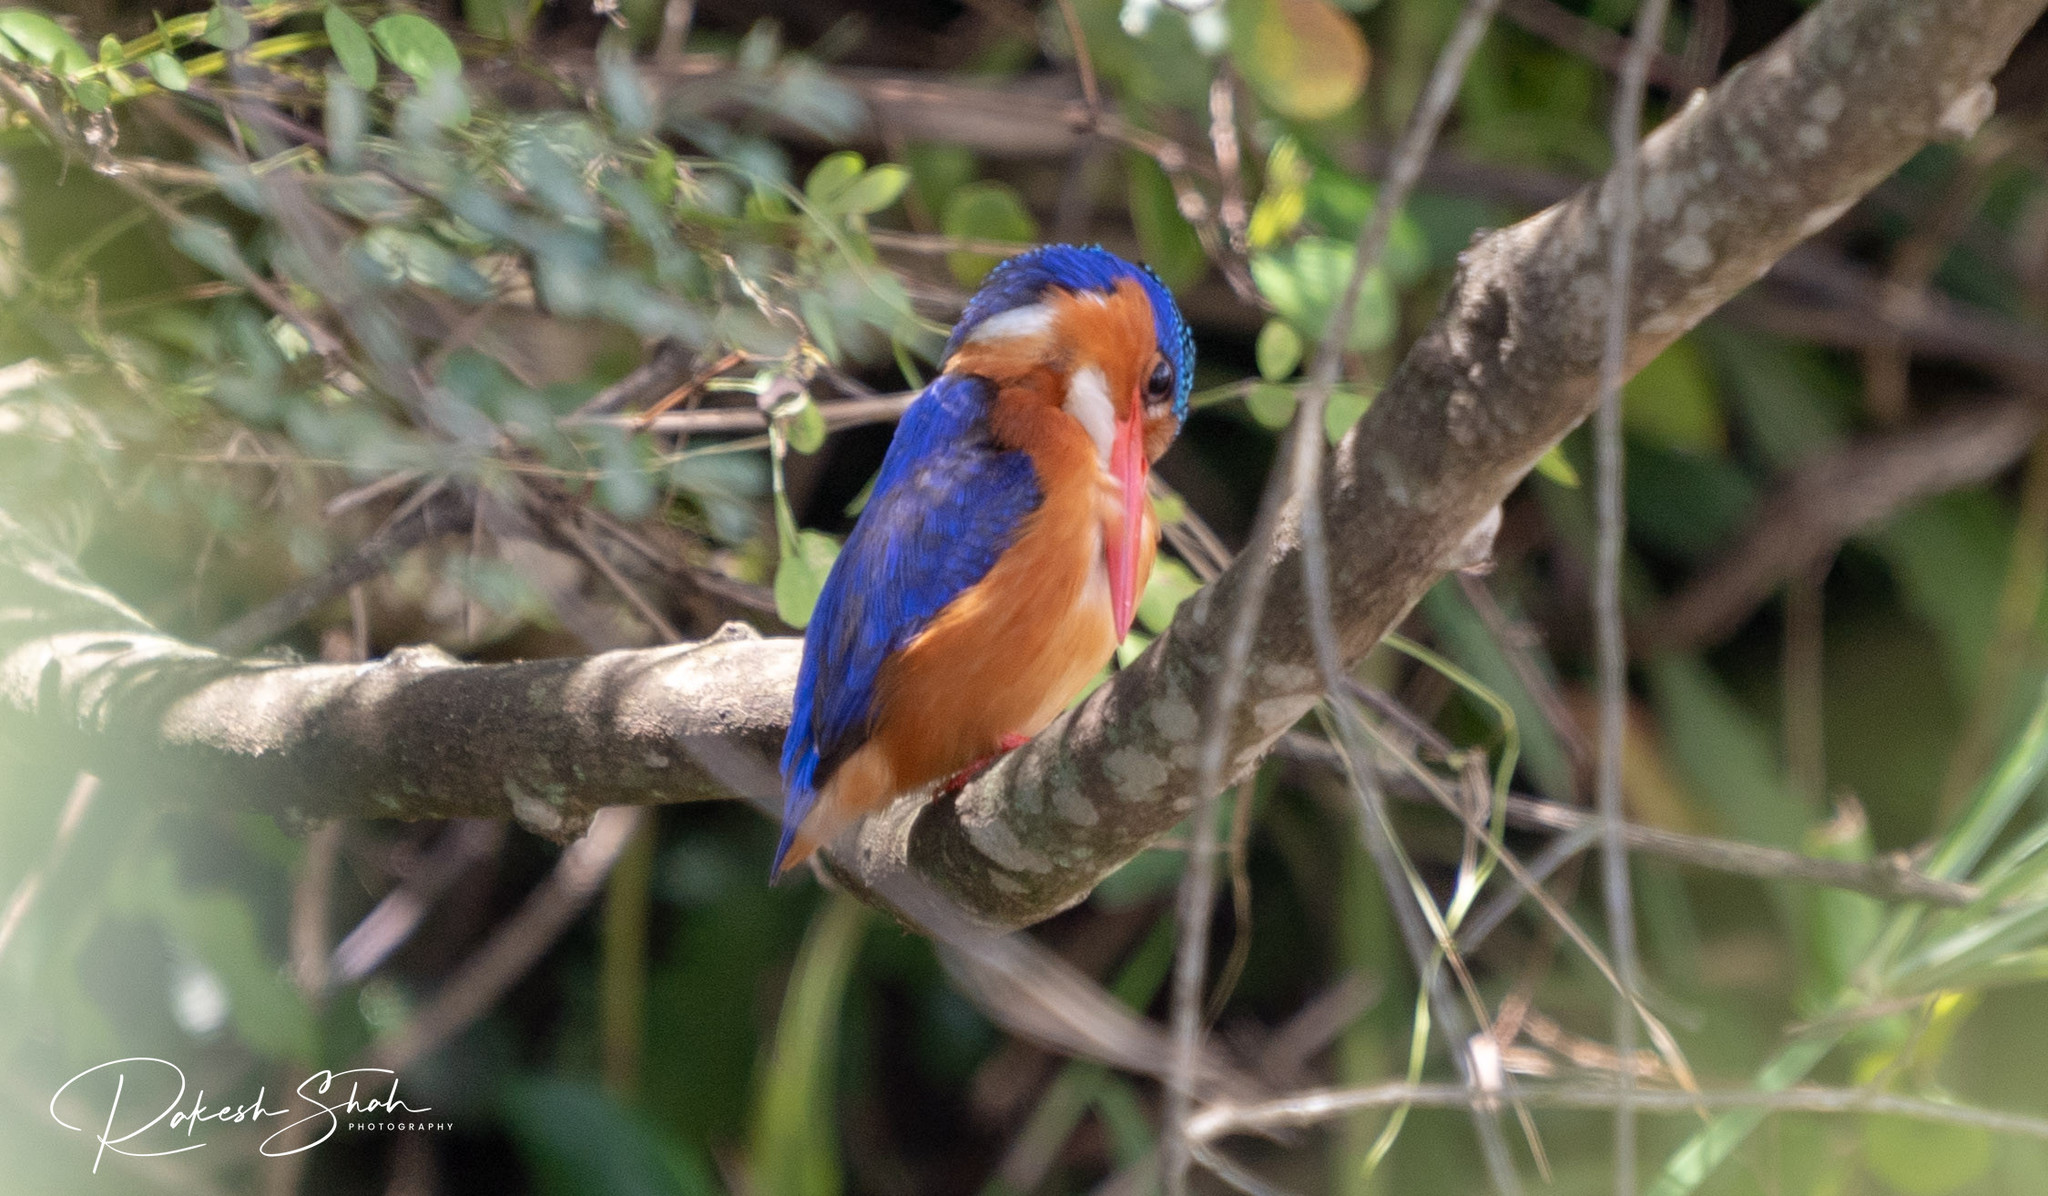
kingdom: Animalia
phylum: Chordata
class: Aves
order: Coraciiformes
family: Alcedinidae
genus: Corythornis
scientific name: Corythornis cristatus
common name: Malachite kingfisher
